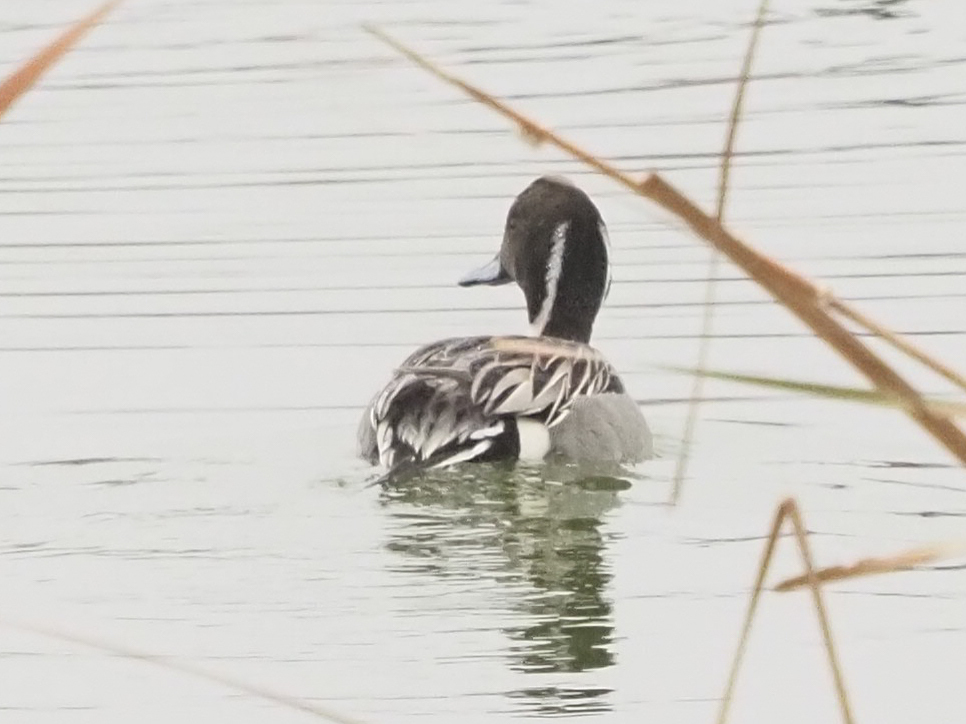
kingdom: Animalia
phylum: Chordata
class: Aves
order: Anseriformes
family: Anatidae
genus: Anas
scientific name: Anas acuta
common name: Northern pintail
